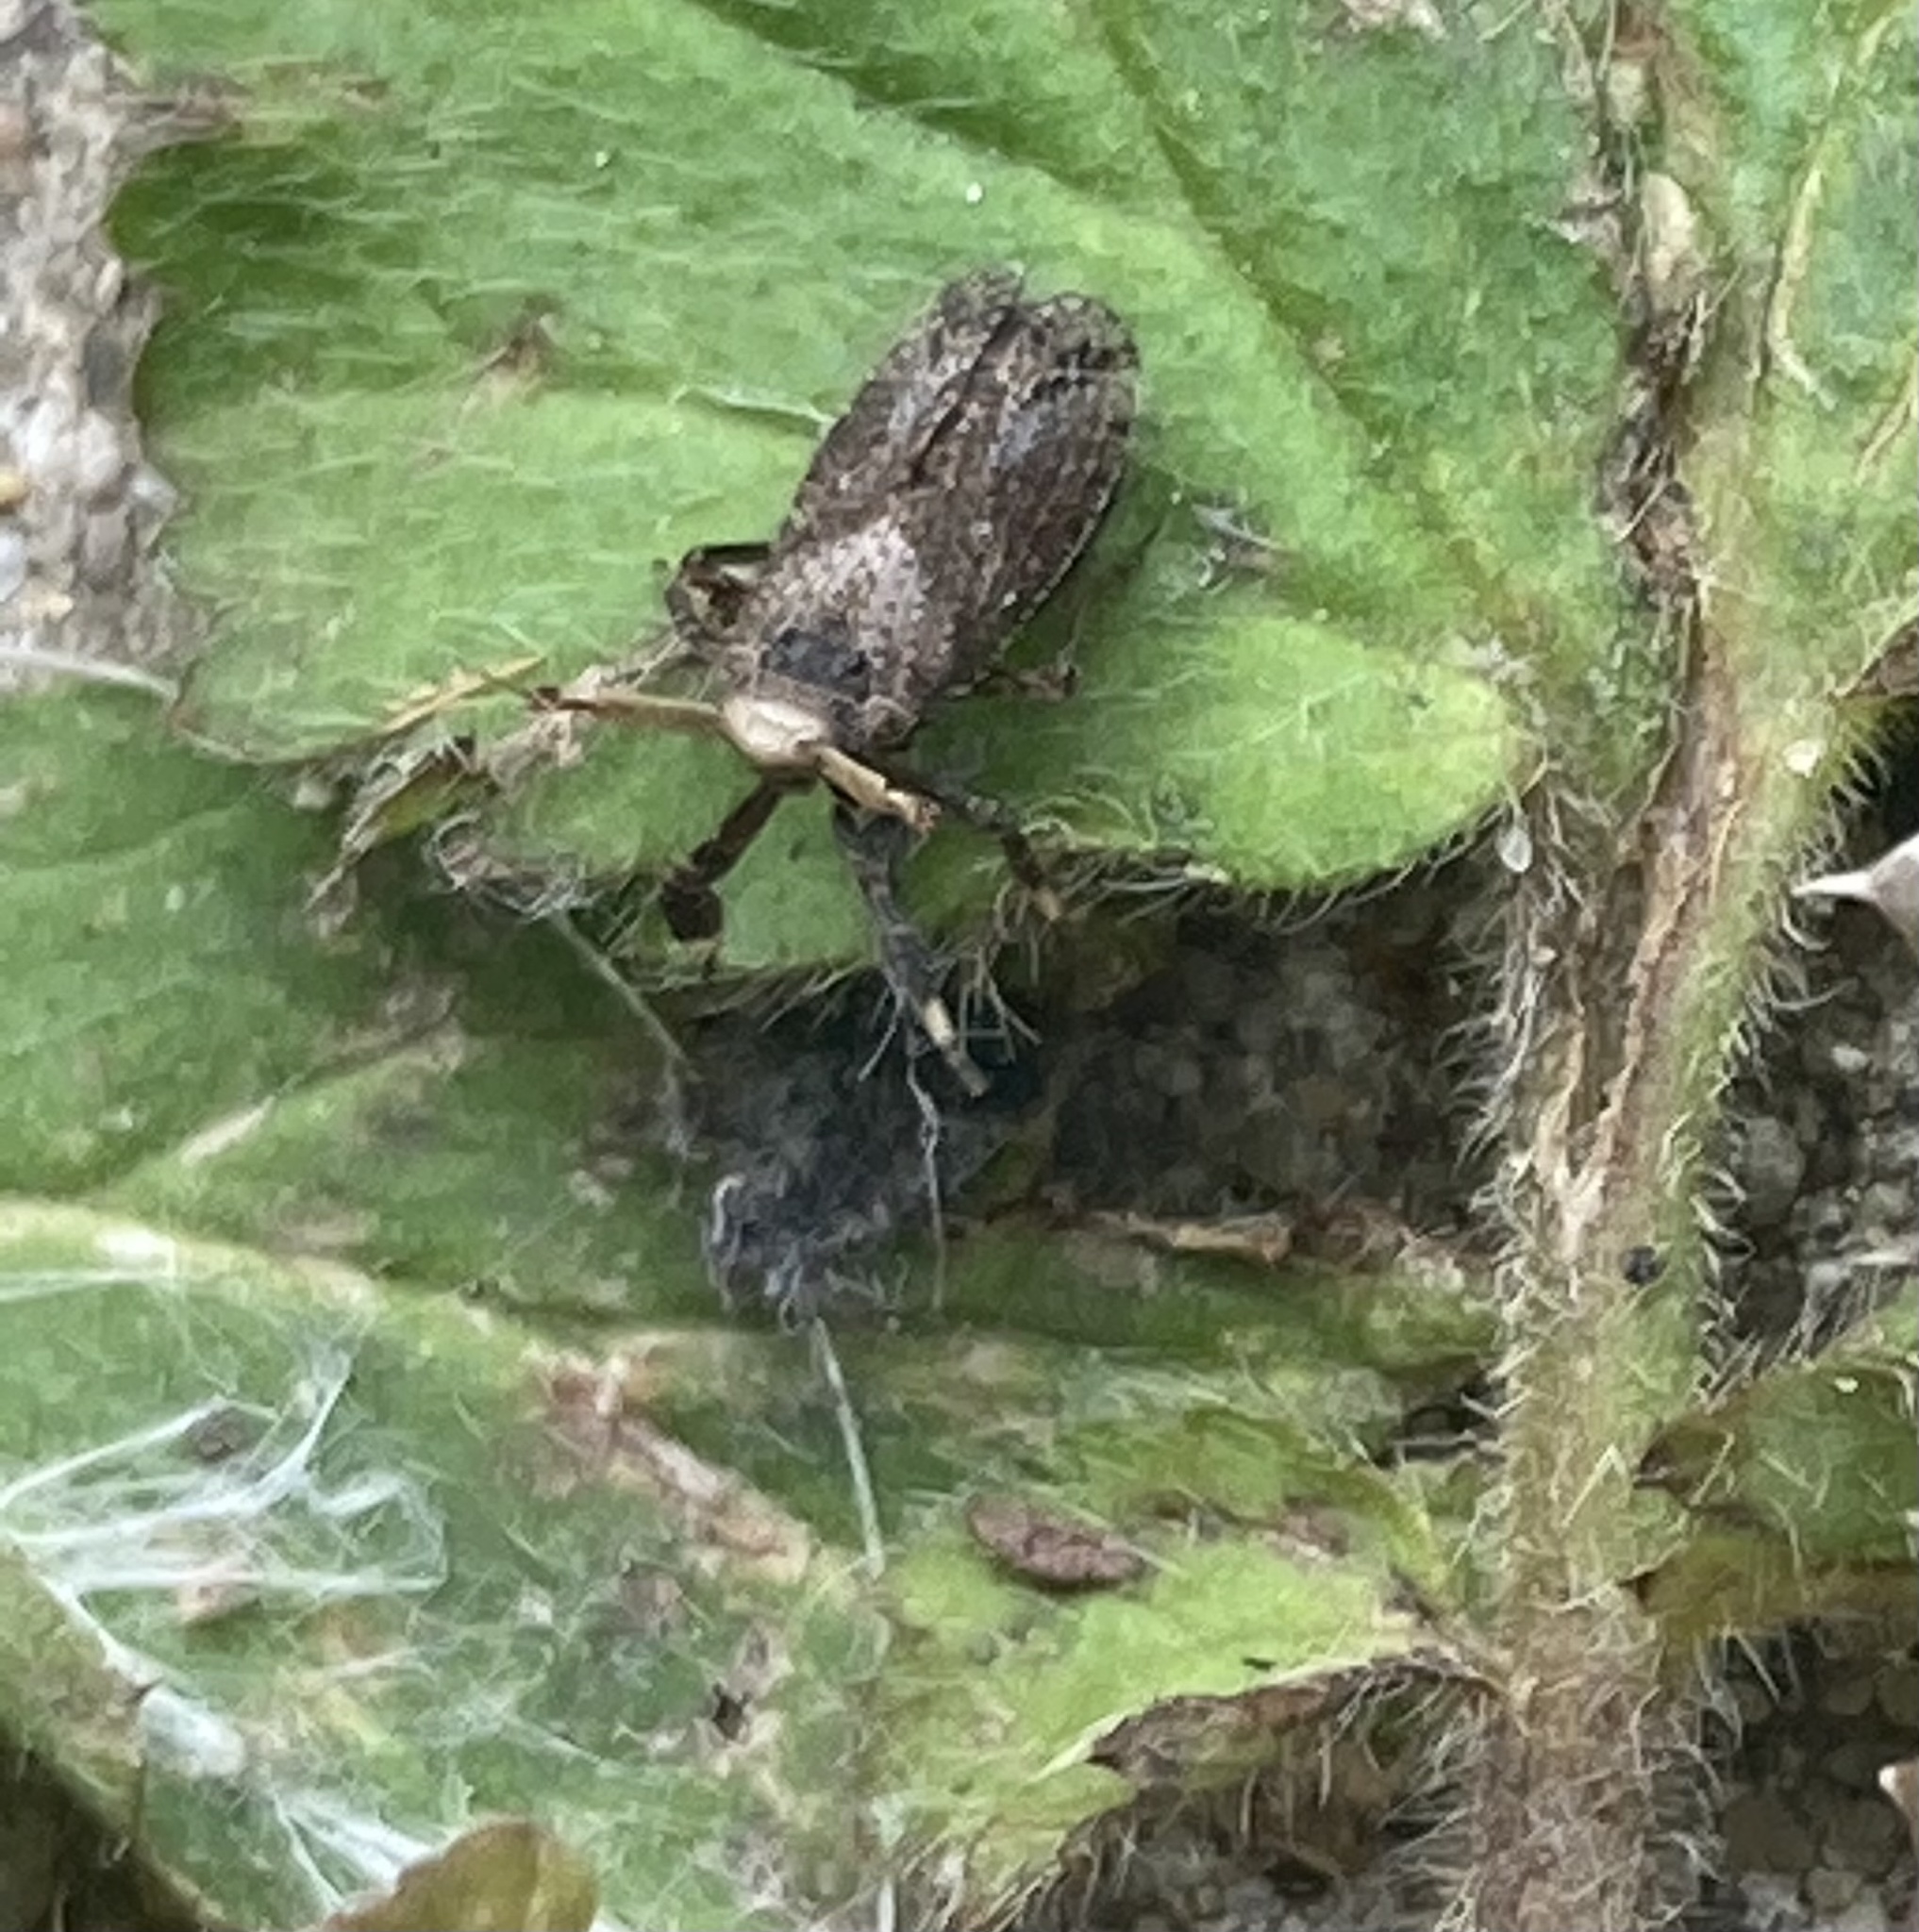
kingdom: Animalia
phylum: Arthropoda
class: Insecta
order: Hemiptera
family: Delphacidae
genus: Asiraca
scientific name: Asiraca clavicornis
